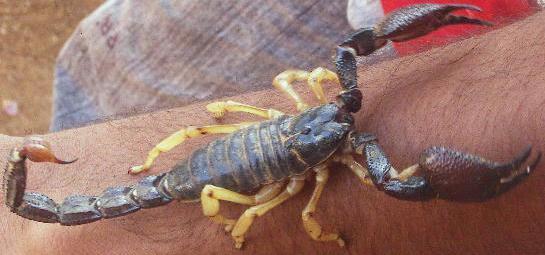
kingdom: Animalia
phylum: Arthropoda
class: Arachnida
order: Scorpiones
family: Scorpionidae
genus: Gigantometrus
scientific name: Gigantometrus swammerdami
